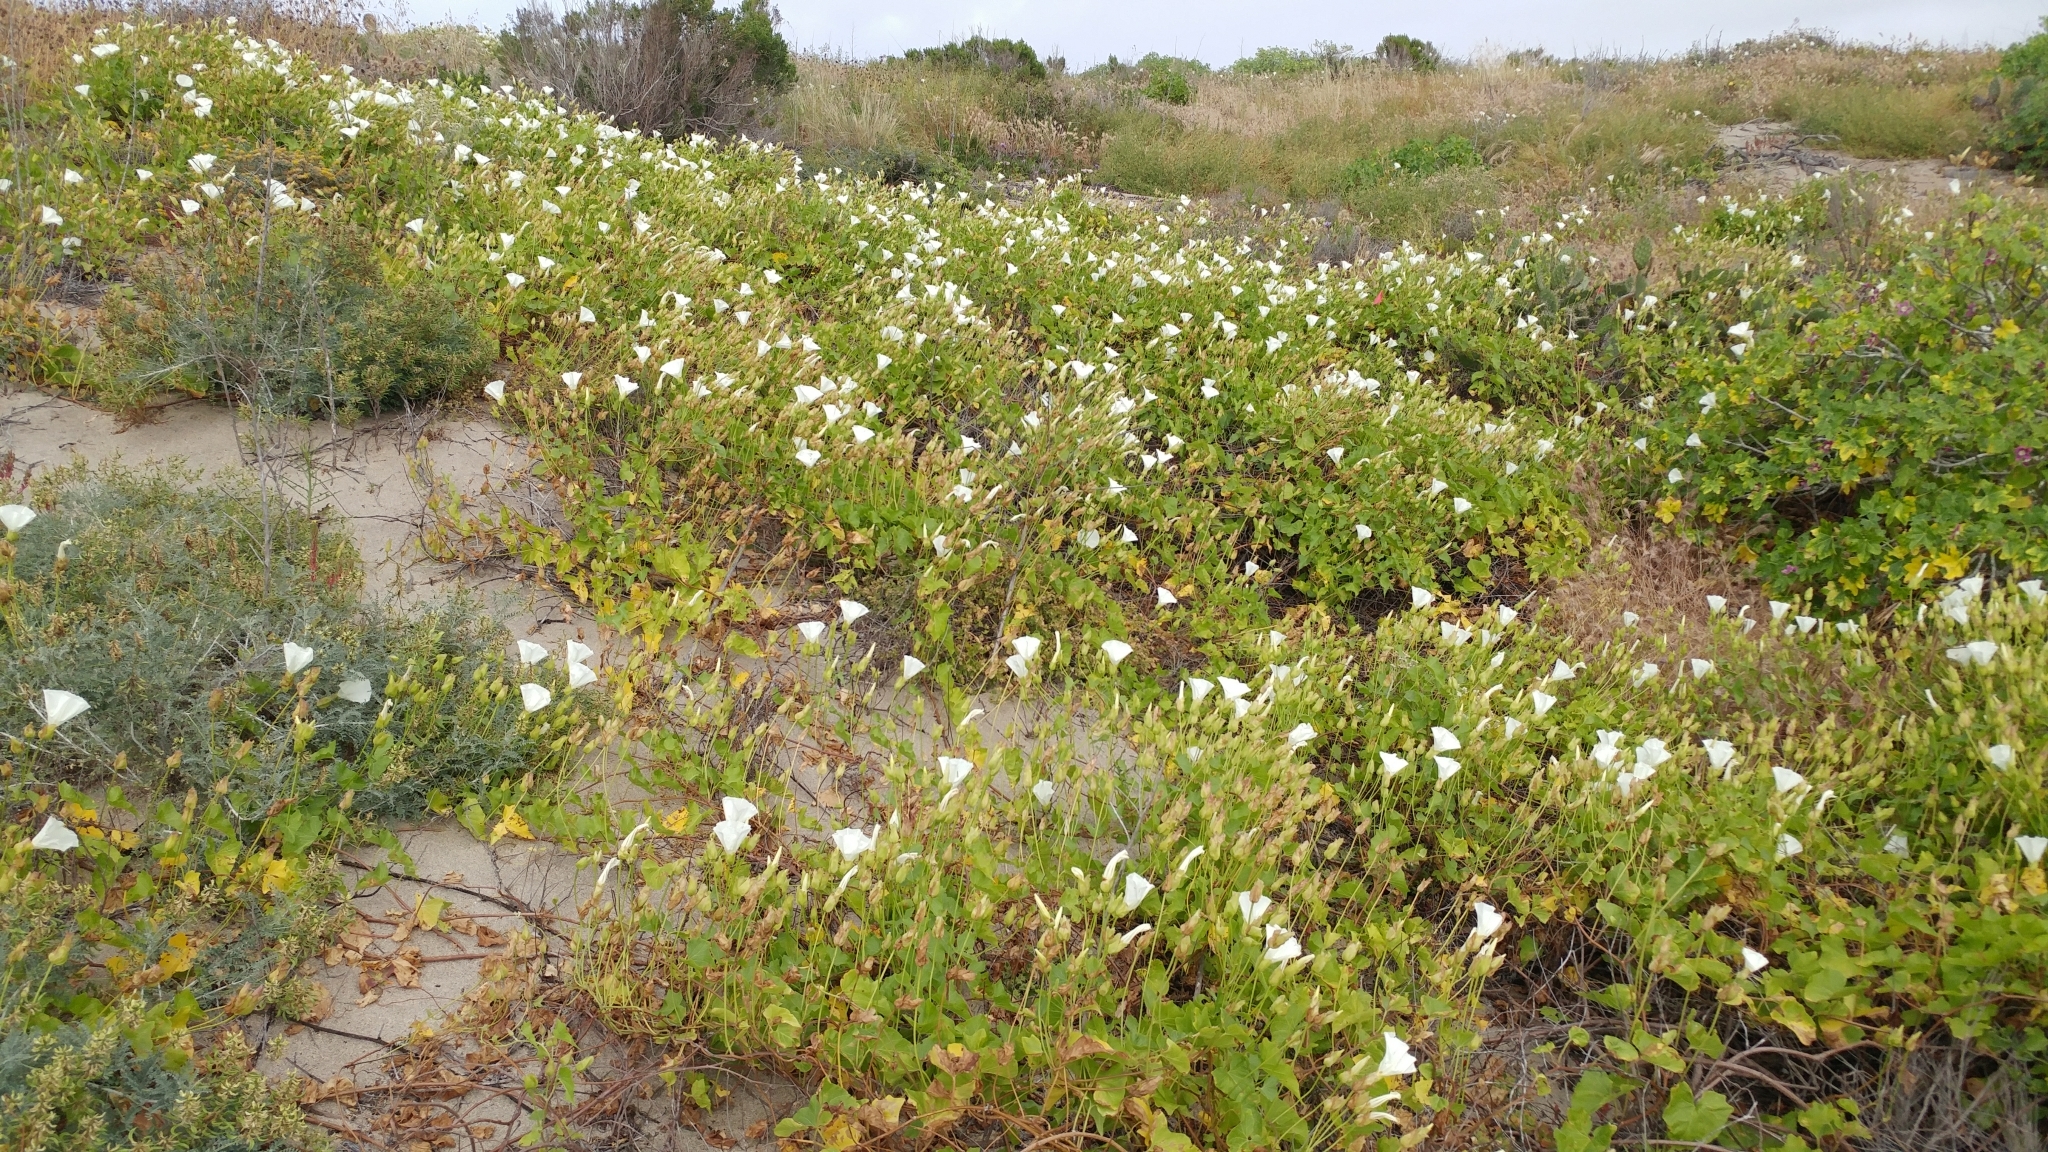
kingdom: Plantae
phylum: Tracheophyta
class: Magnoliopsida
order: Solanales
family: Convolvulaceae
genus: Calystegia
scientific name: Calystegia macrostegia
